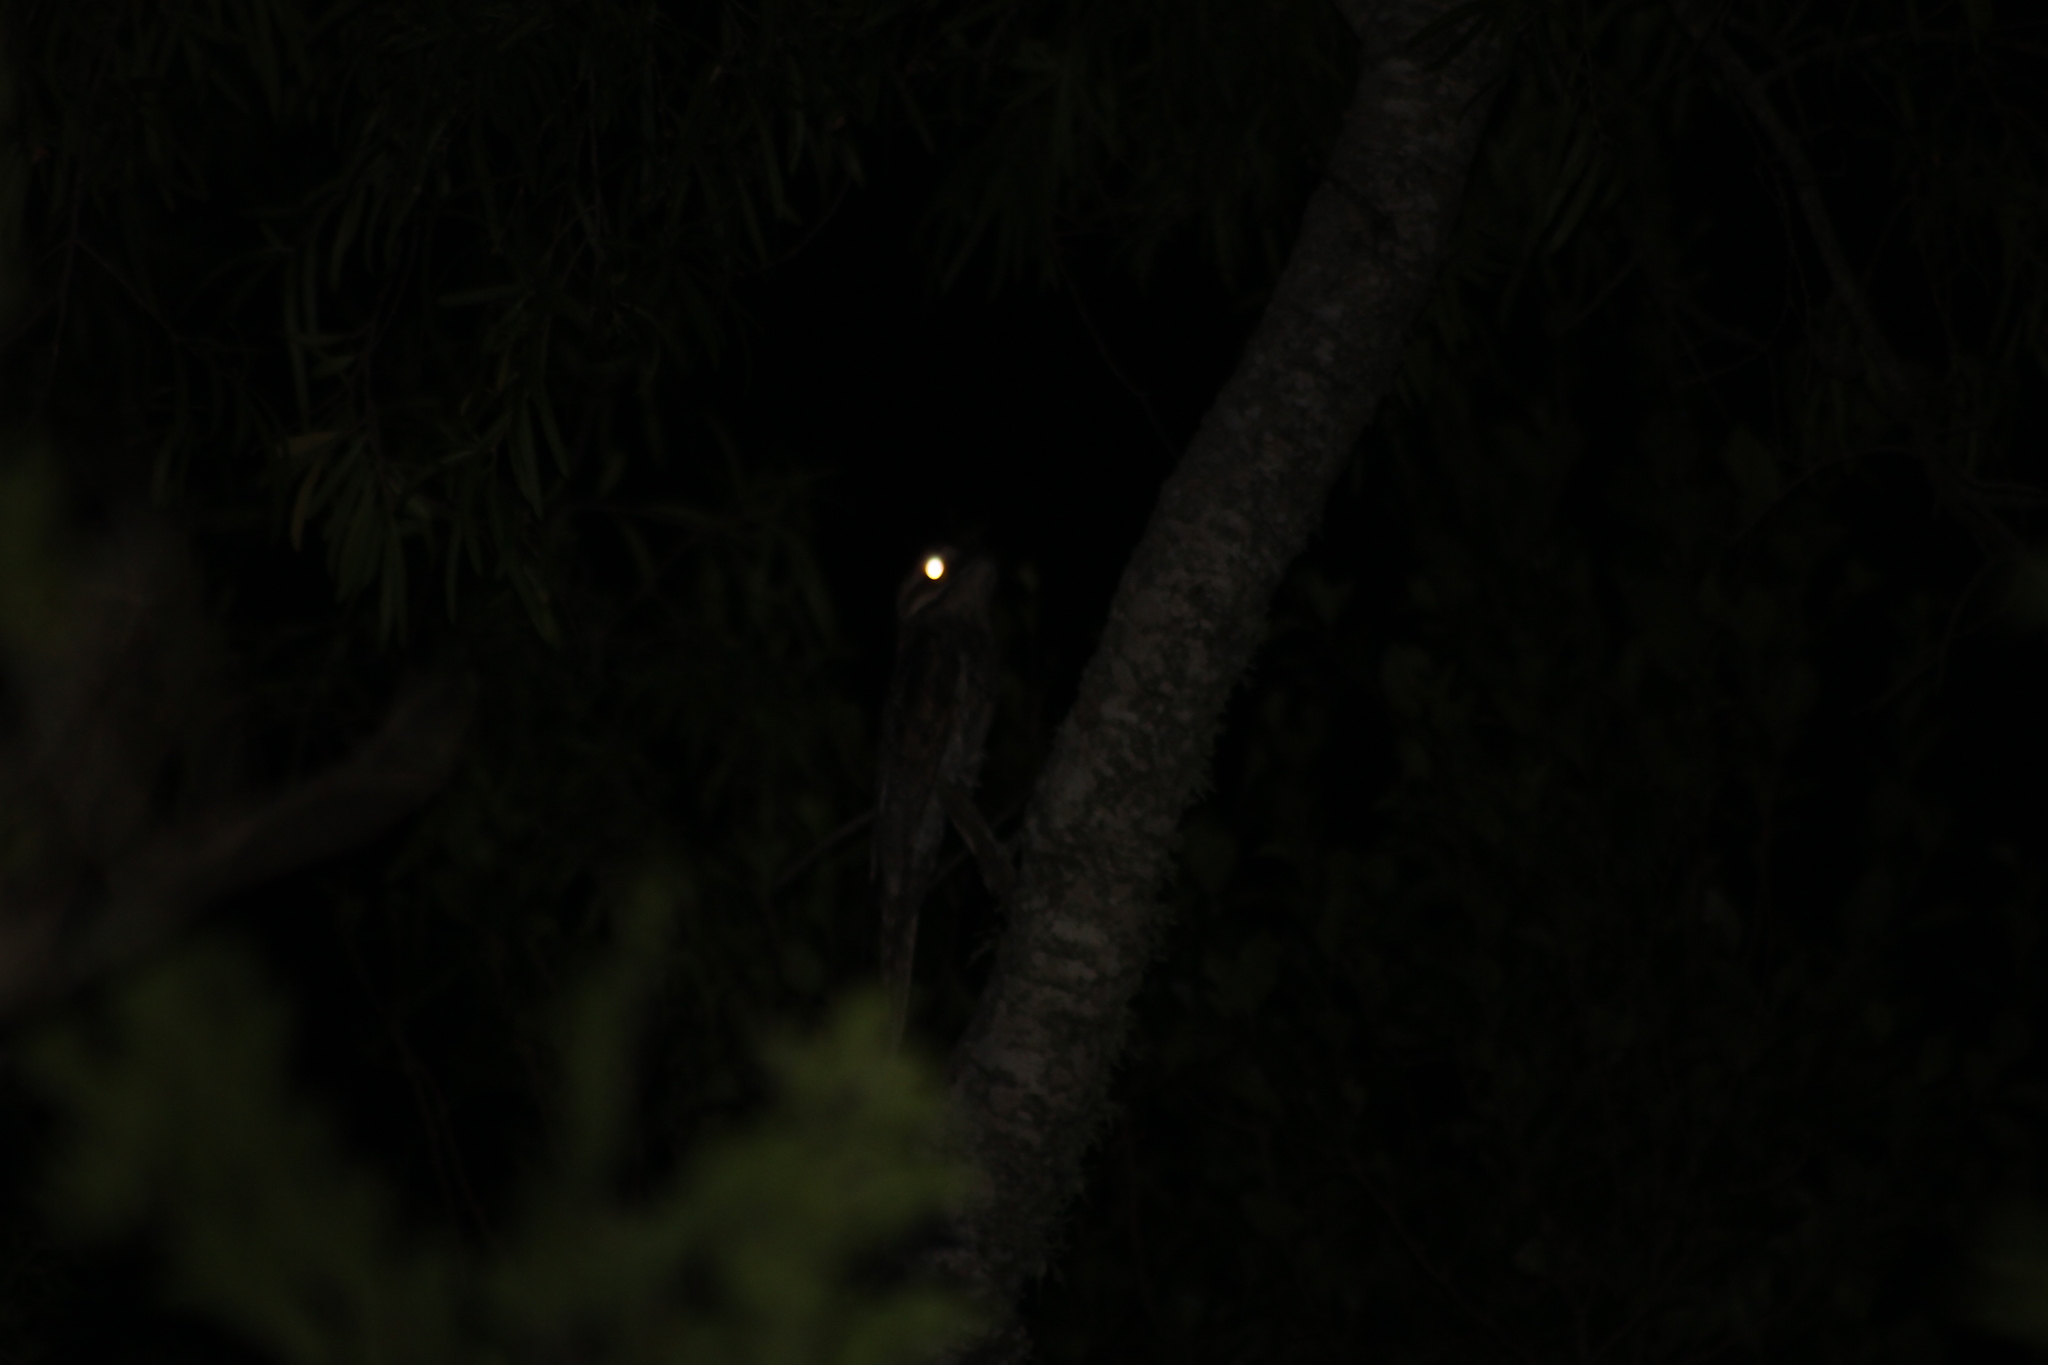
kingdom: Animalia
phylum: Chordata
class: Aves
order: Nyctibiiformes
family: Nyctibiidae
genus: Nyctibius
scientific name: Nyctibius griseus
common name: Common potoo
